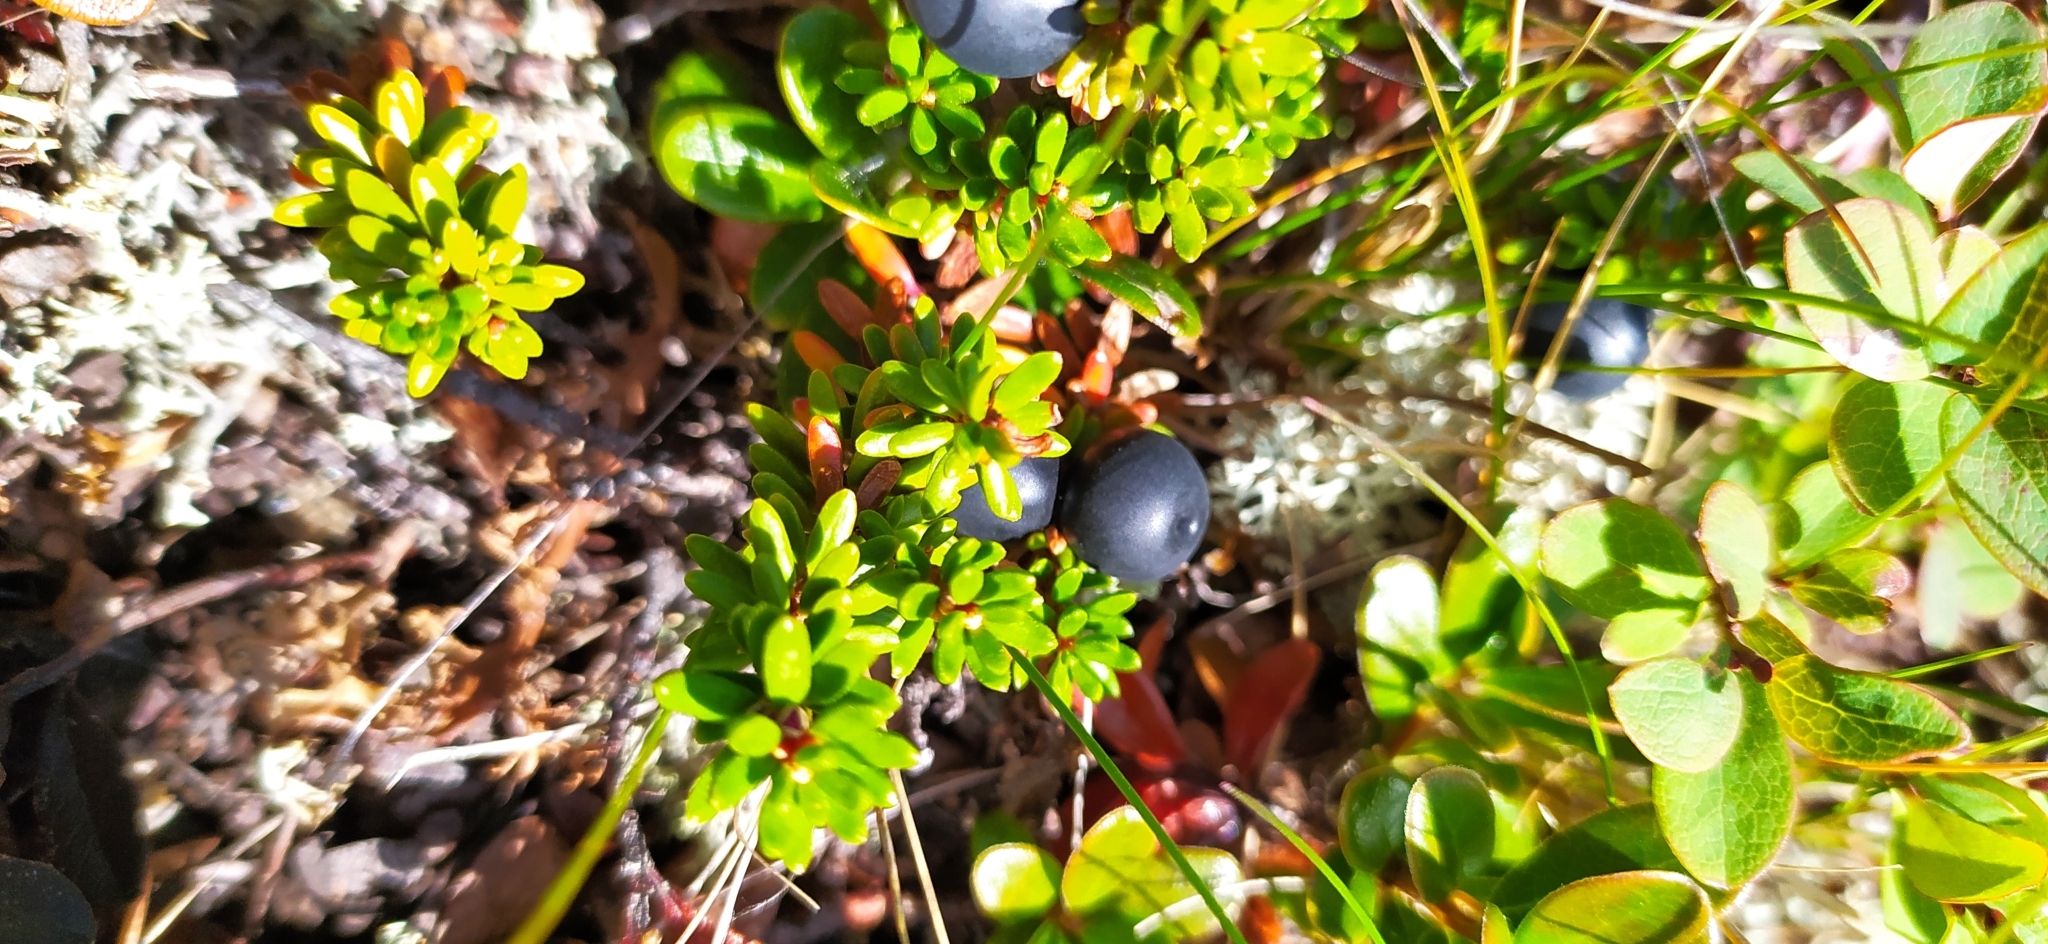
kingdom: Plantae
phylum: Tracheophyta
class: Magnoliopsida
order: Ericales
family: Ericaceae
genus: Empetrum
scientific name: Empetrum nigrum
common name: Black crowberry
